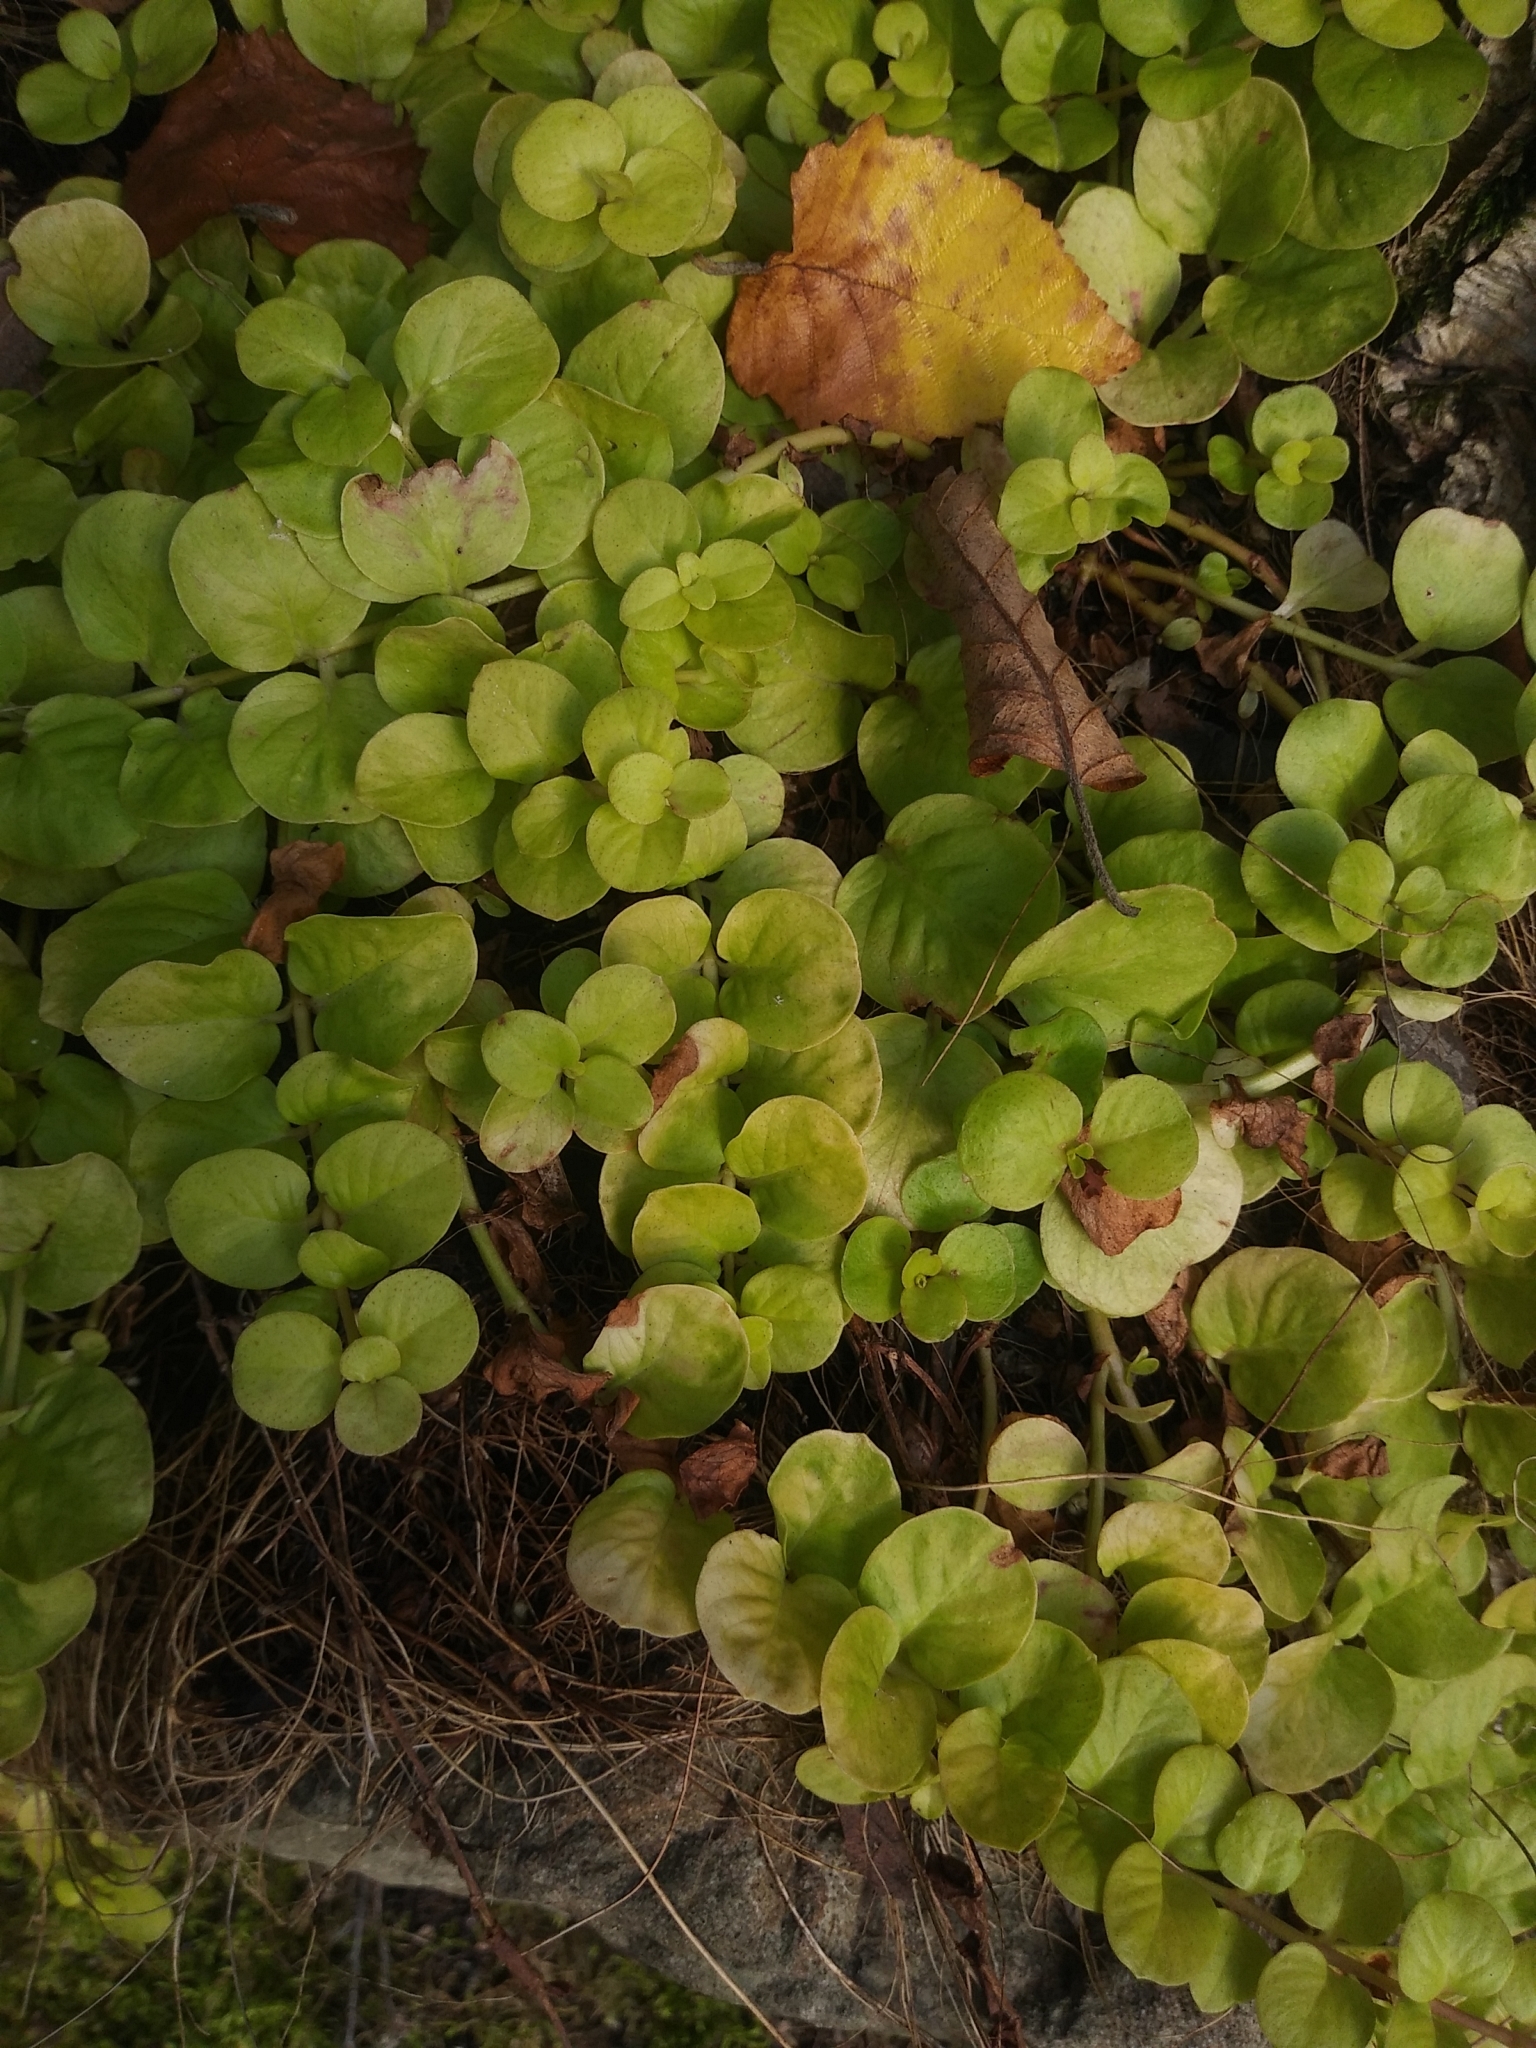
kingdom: Plantae
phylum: Tracheophyta
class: Magnoliopsida
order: Ericales
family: Primulaceae
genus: Lysimachia
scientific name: Lysimachia nummularia
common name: Moneywort
